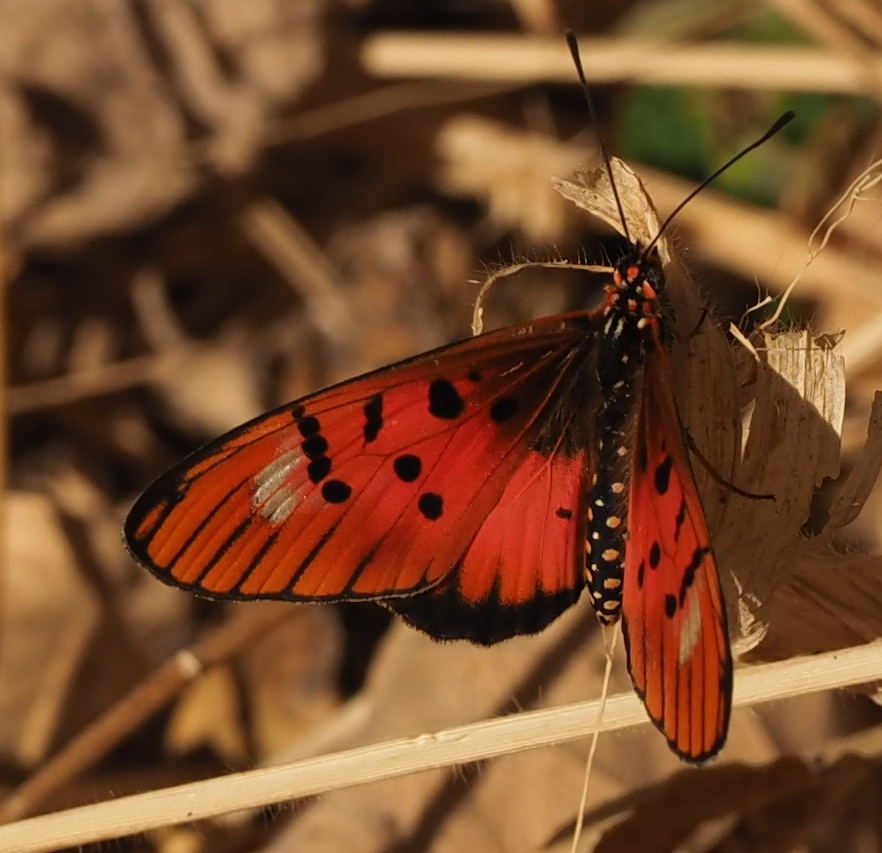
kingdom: Animalia
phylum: Arthropoda
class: Insecta
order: Lepidoptera
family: Nymphalidae
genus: Stephenia
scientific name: Stephenia
